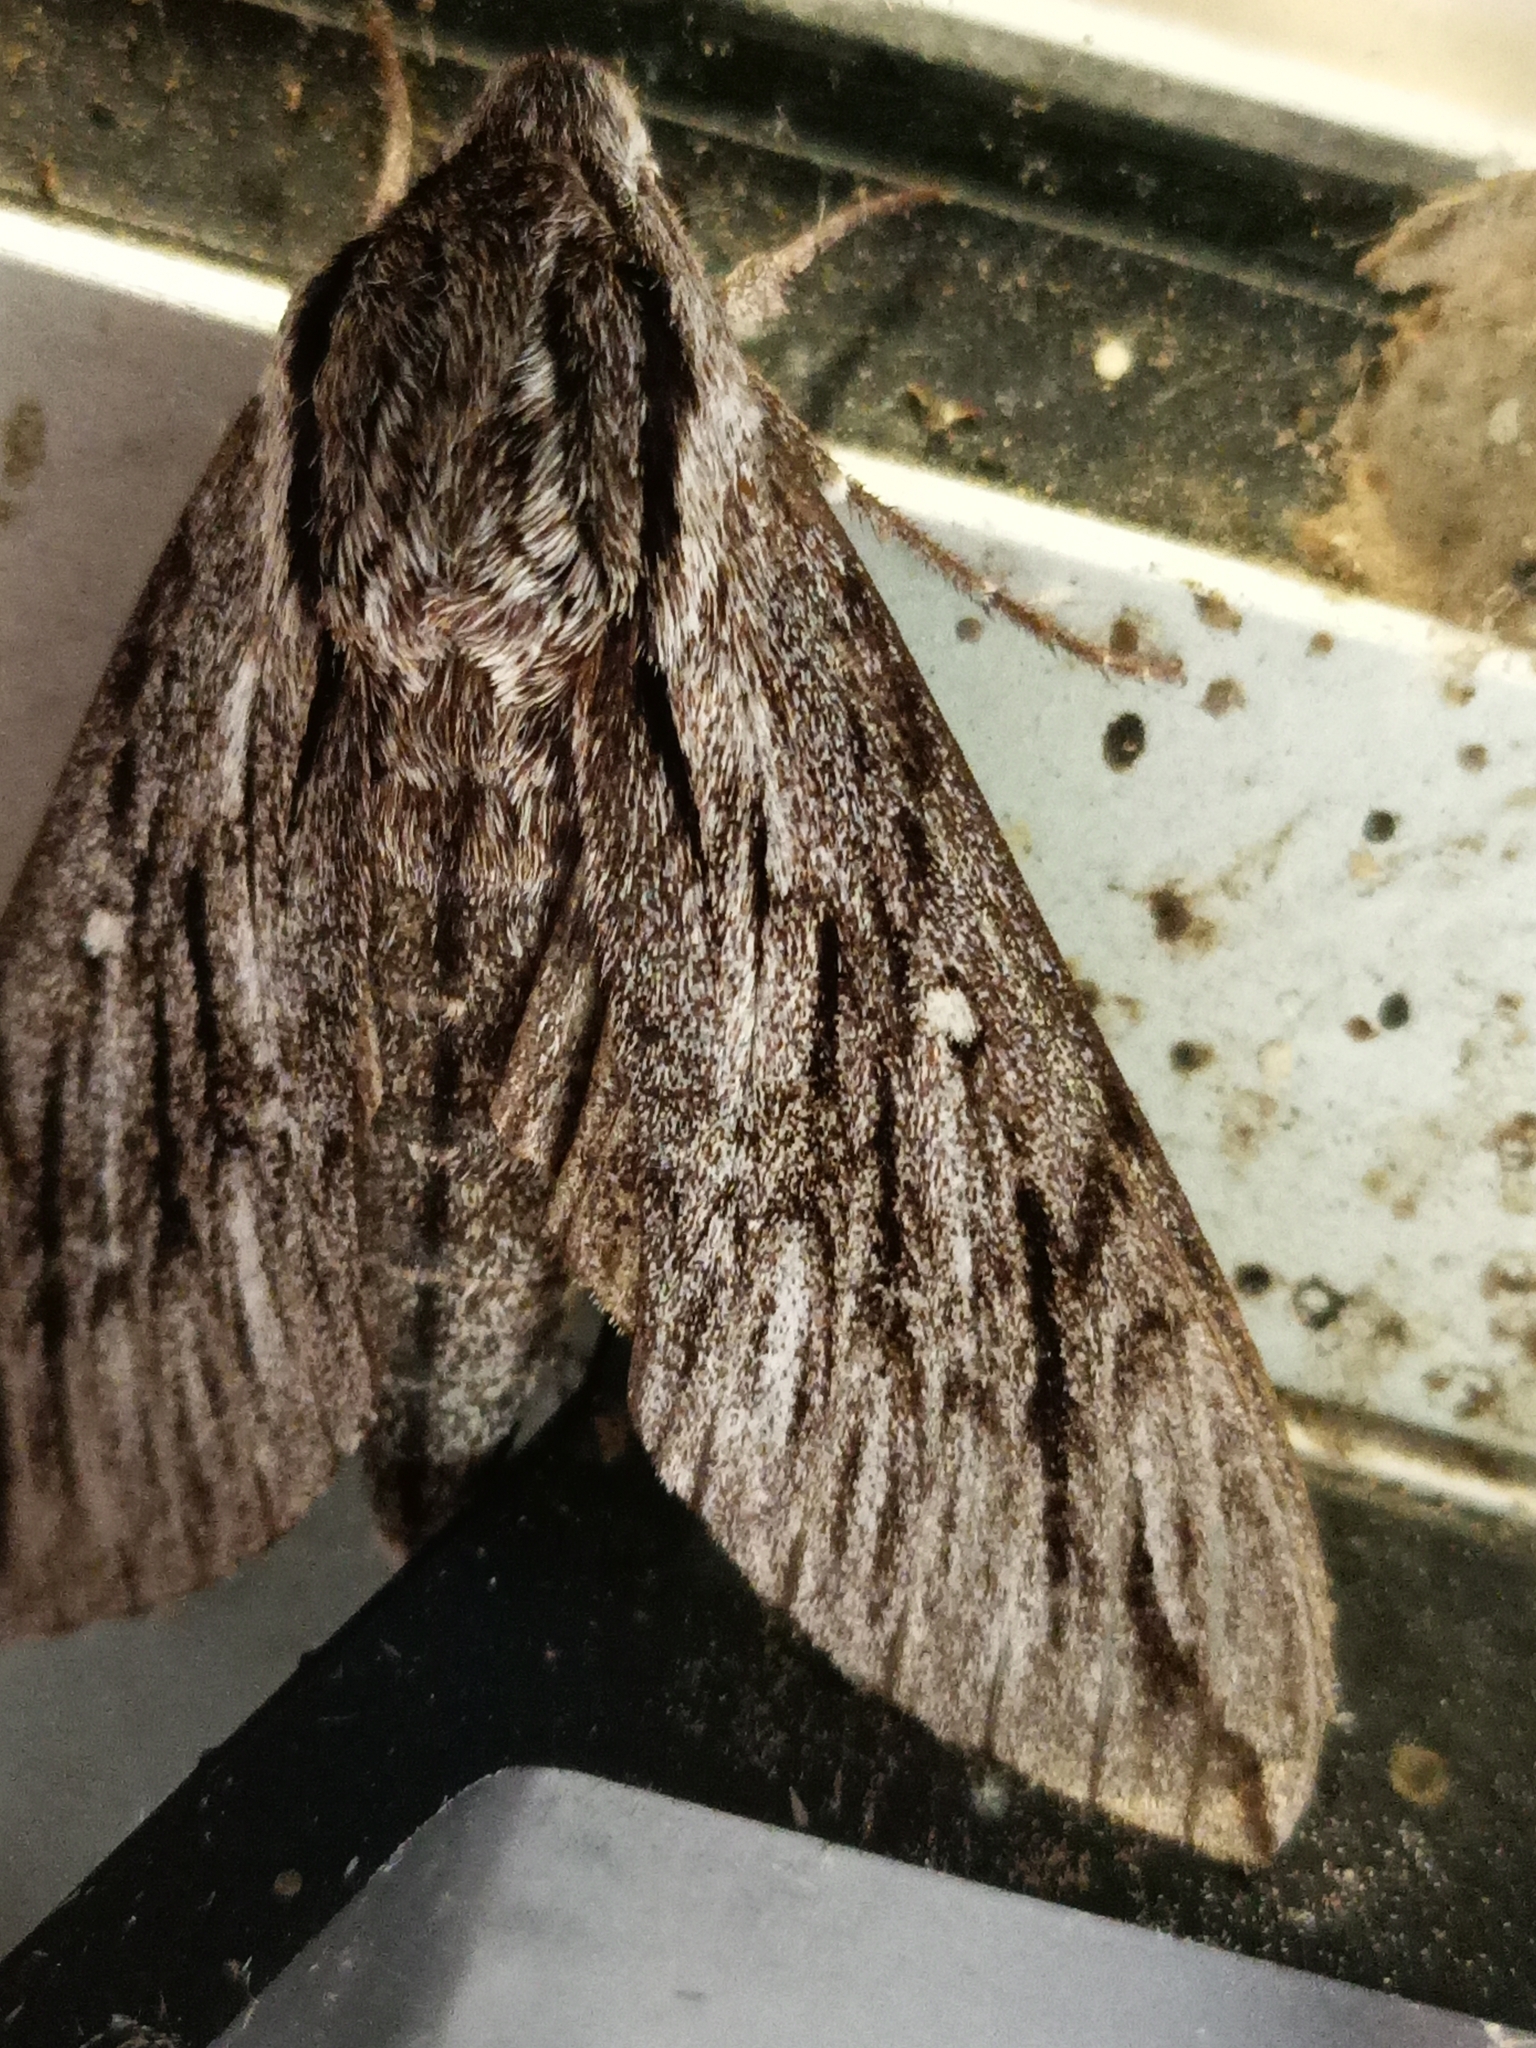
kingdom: Animalia
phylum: Arthropoda
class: Insecta
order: Lepidoptera
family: Sphingidae
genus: Paratrea
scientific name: Paratrea plebeja
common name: Plebian sphinx
